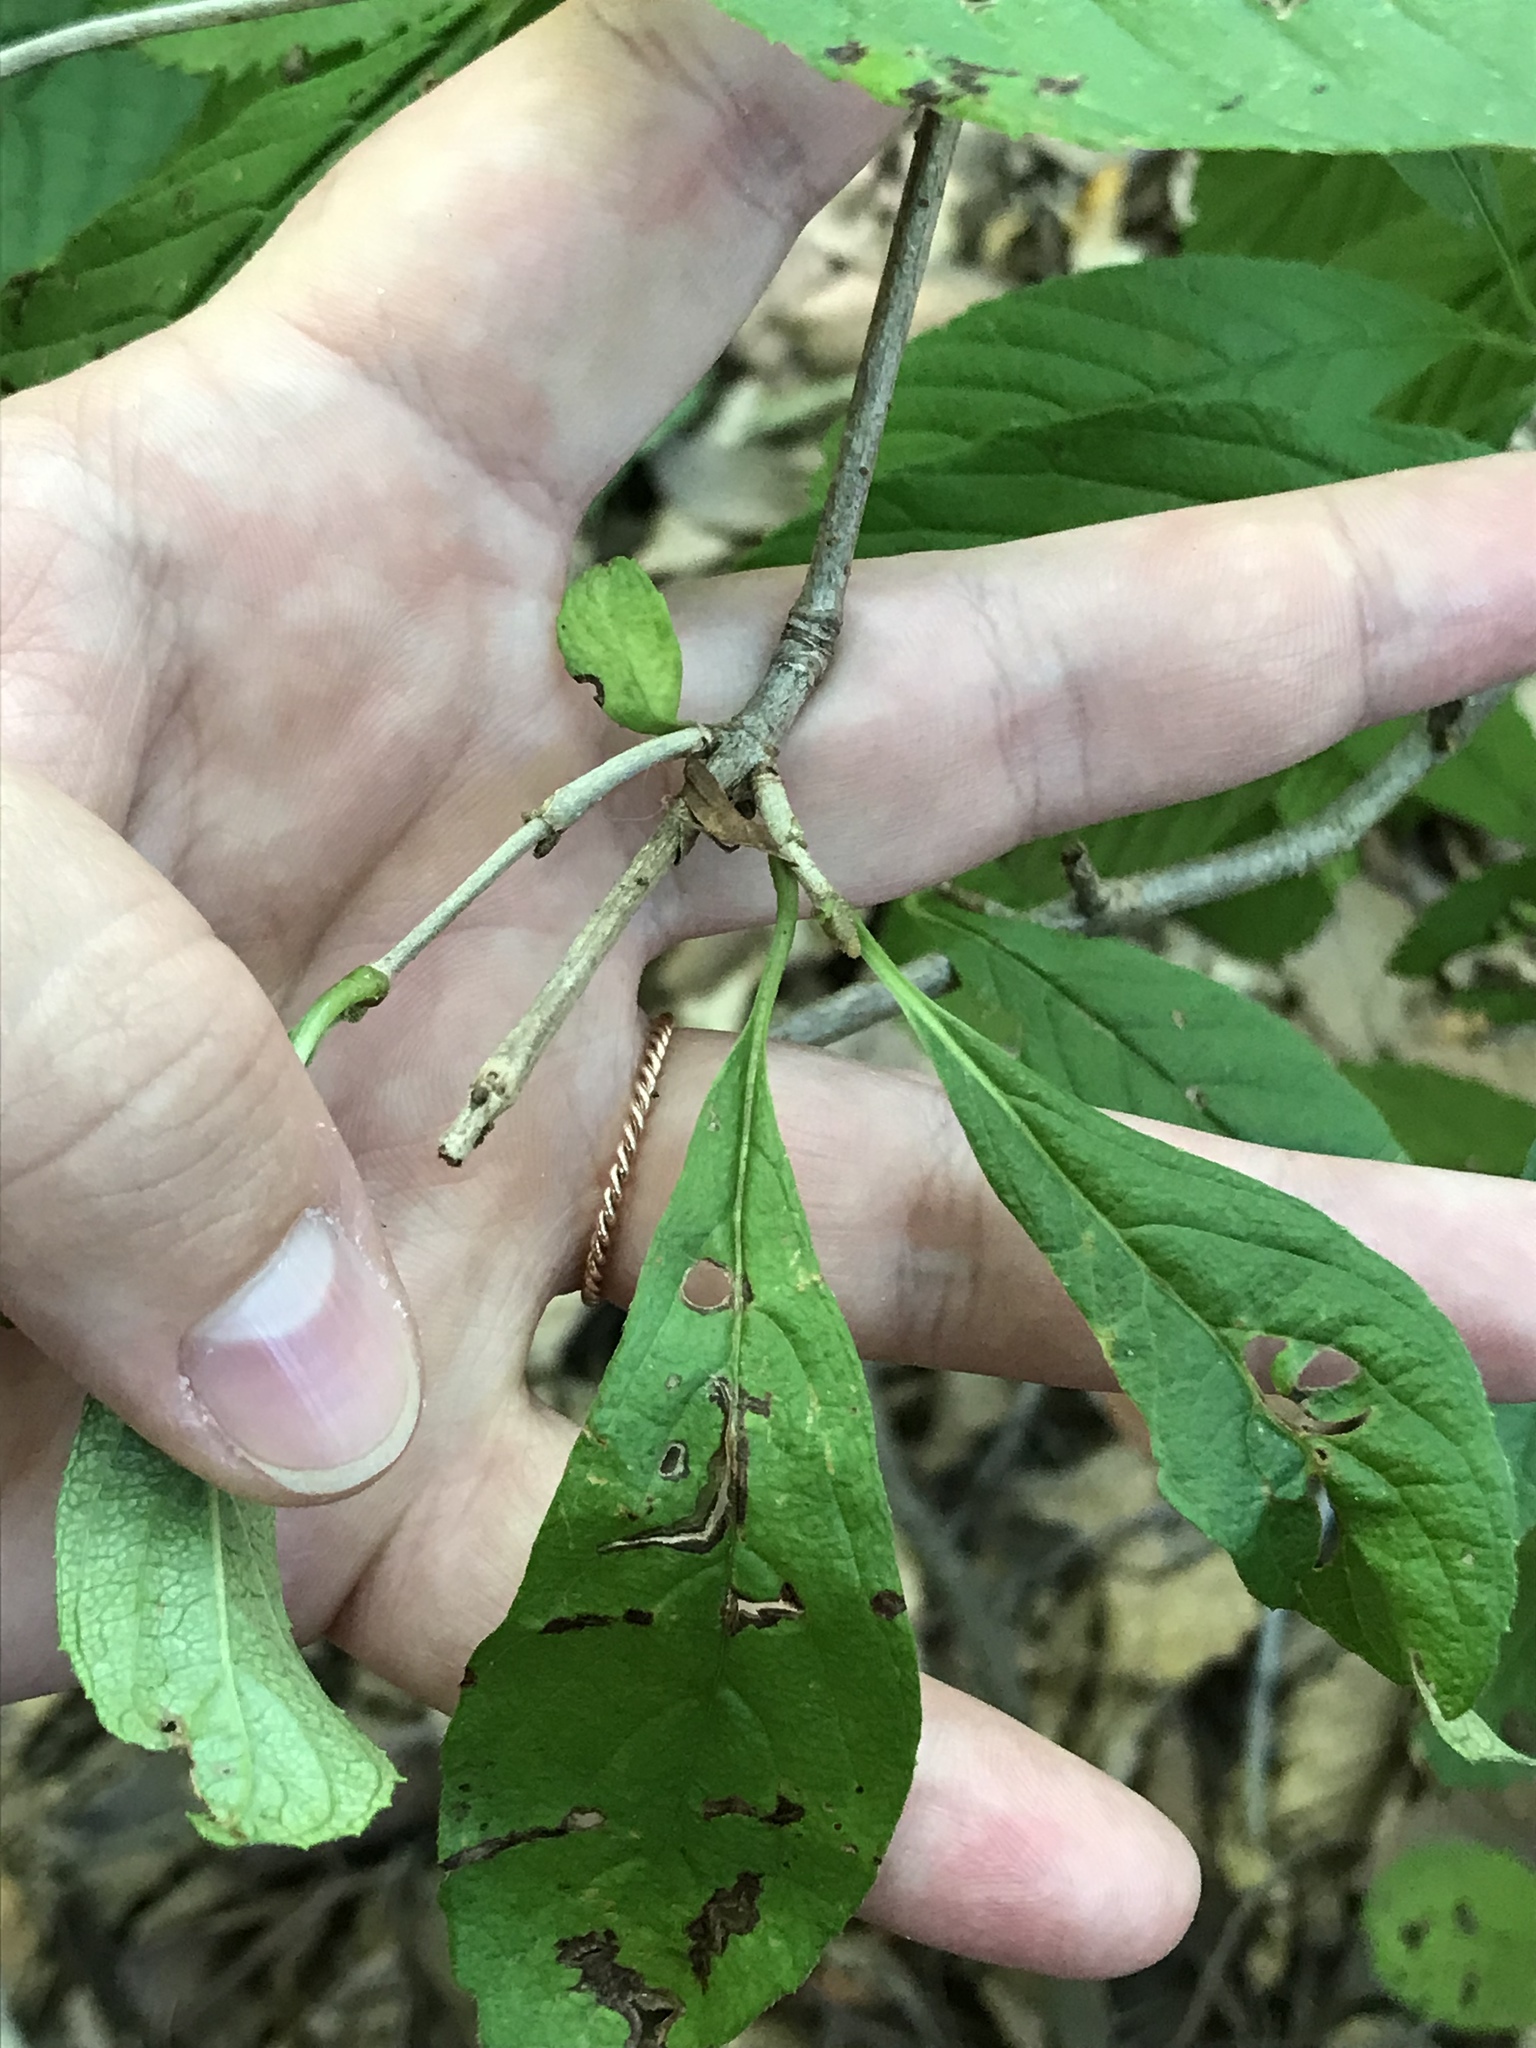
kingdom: Plantae
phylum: Tracheophyta
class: Magnoliopsida
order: Dipsacales
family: Viburnaceae
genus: Viburnum
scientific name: Viburnum sieboldii
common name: Siebold's arrowwood
